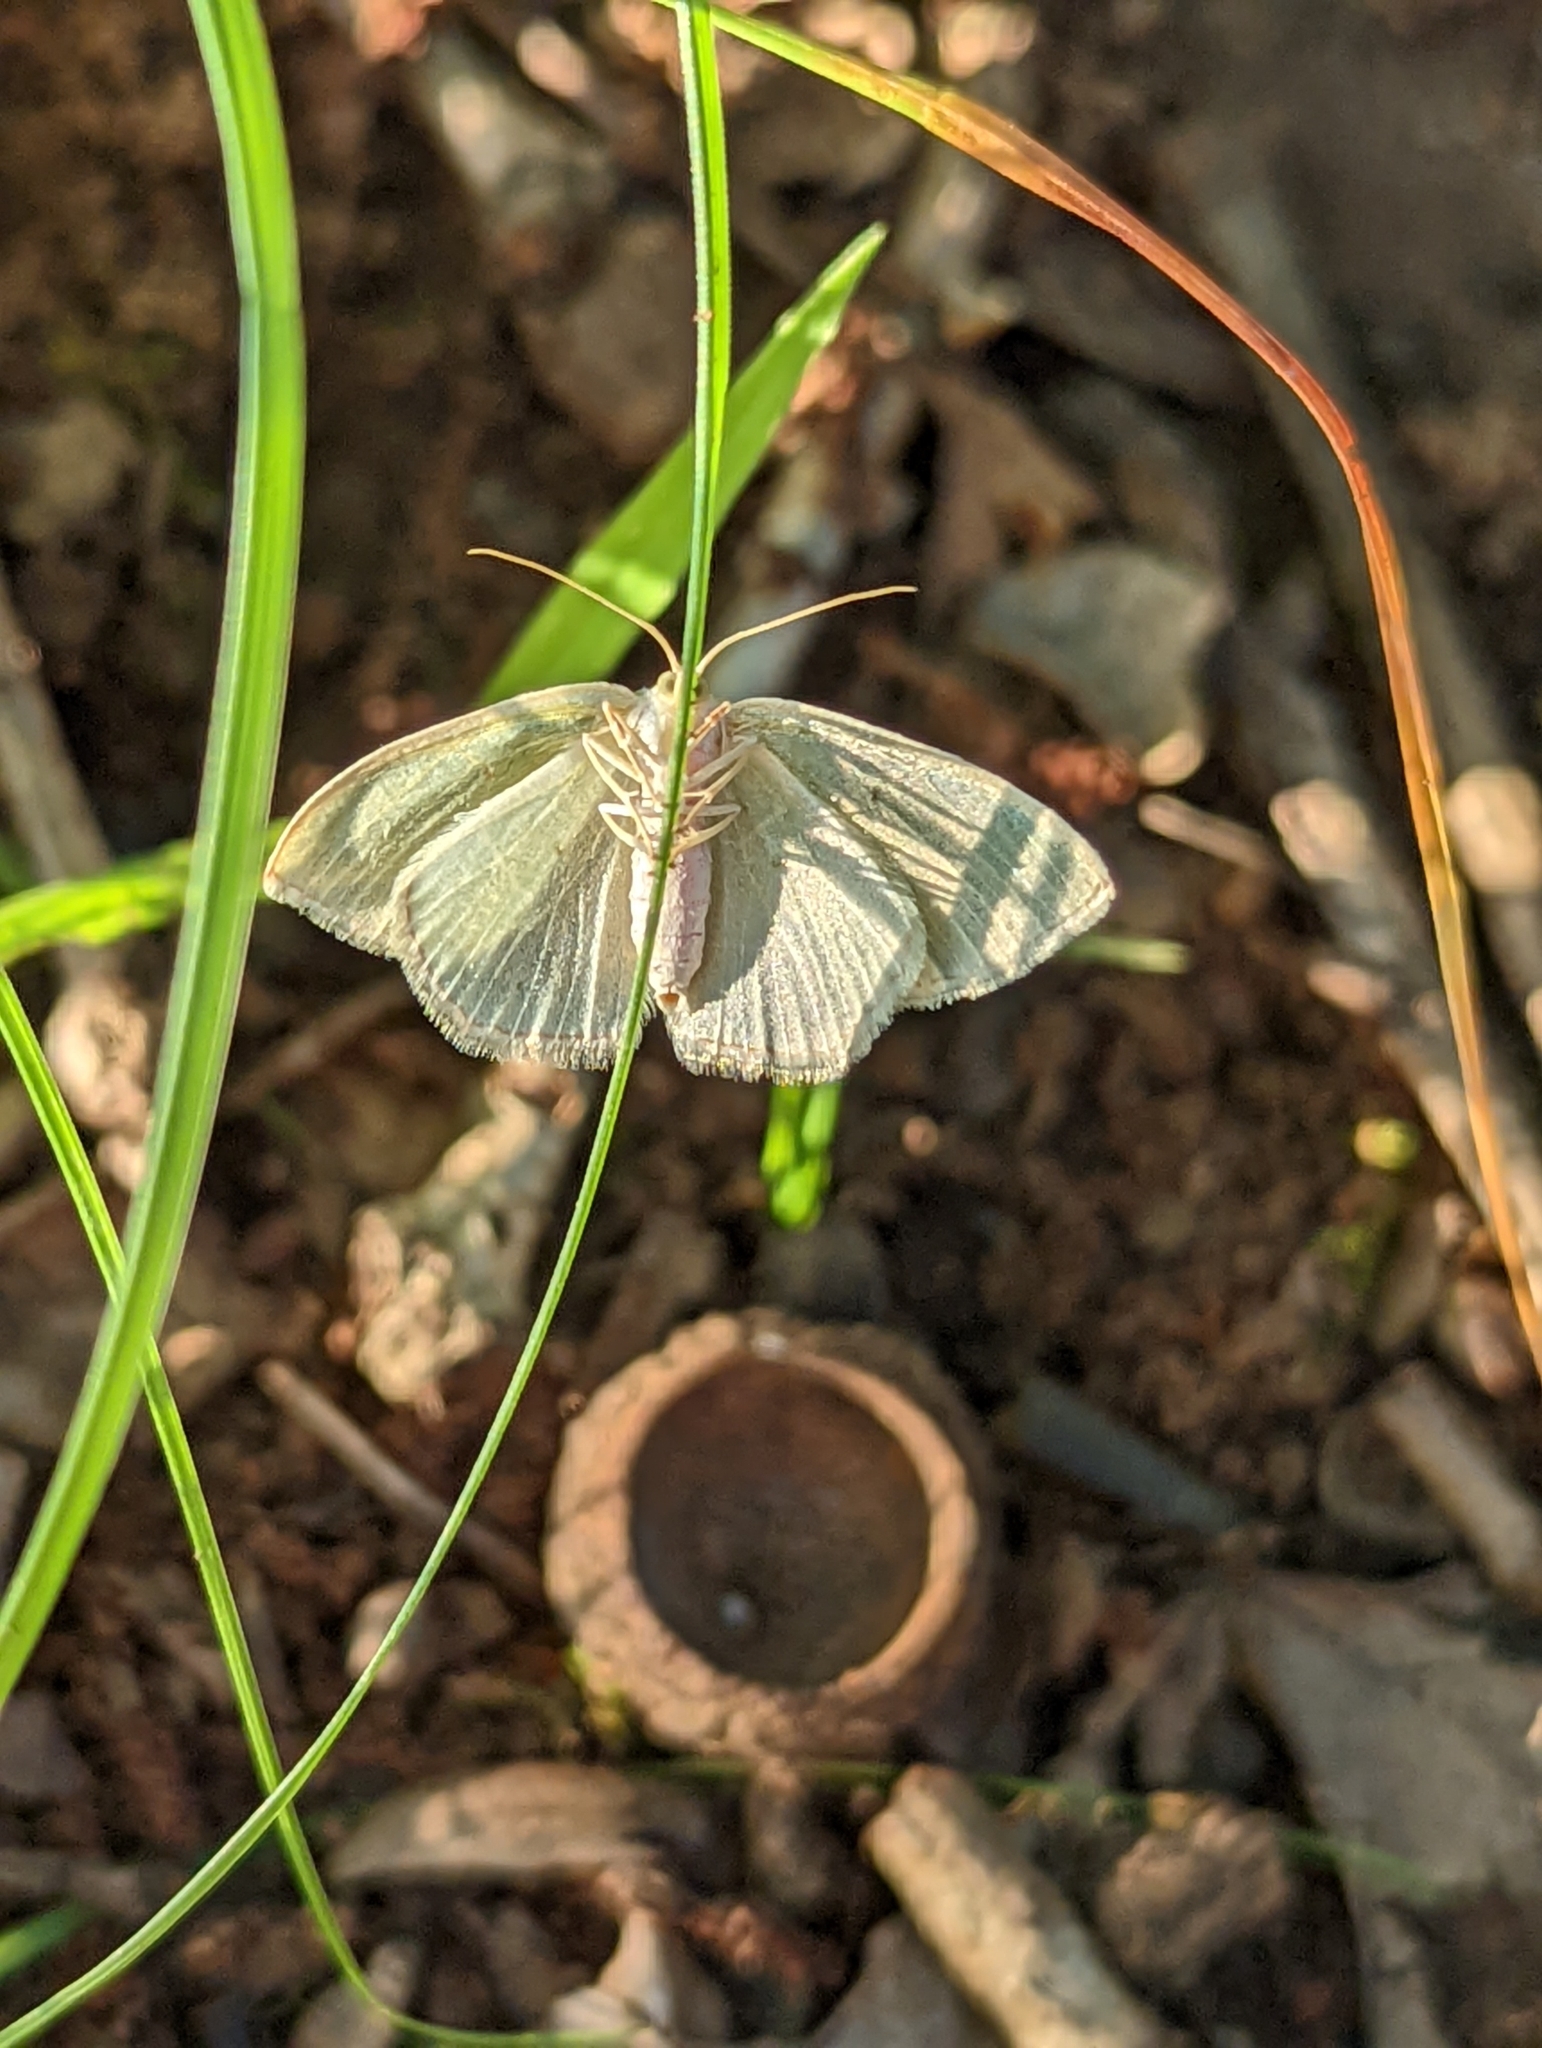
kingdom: Animalia
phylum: Arthropoda
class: Insecta
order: Lepidoptera
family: Geometridae
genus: Nemoria
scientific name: Nemoria bistriaria
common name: Red-fringed emerald
